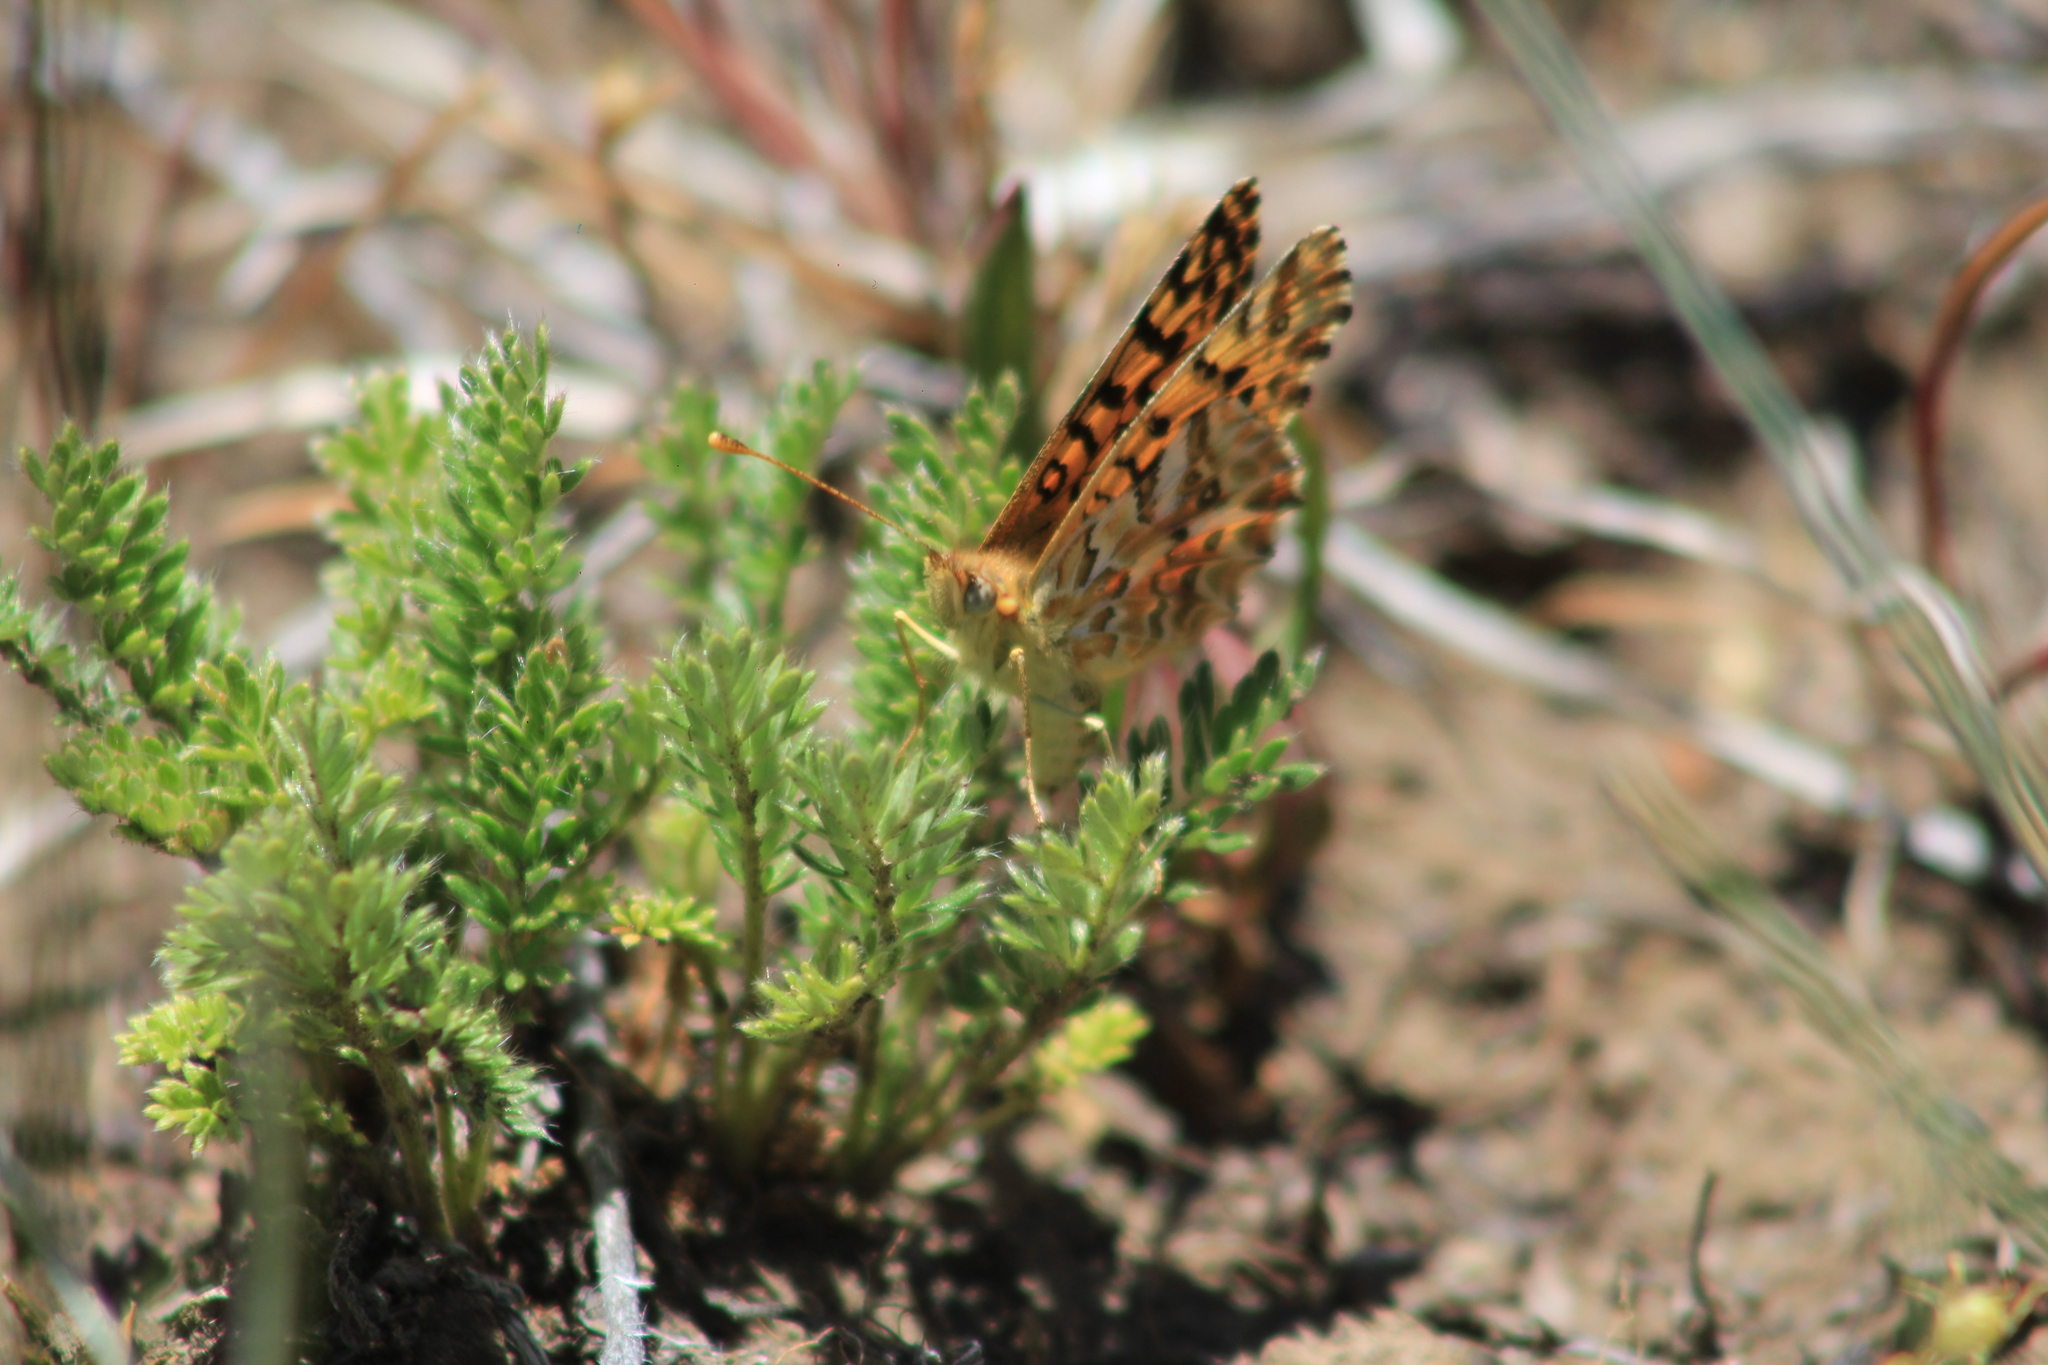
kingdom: Animalia
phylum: Arthropoda
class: Insecta
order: Lepidoptera
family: Nymphalidae
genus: Issoria
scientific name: Issoria Yramea lathonoides
